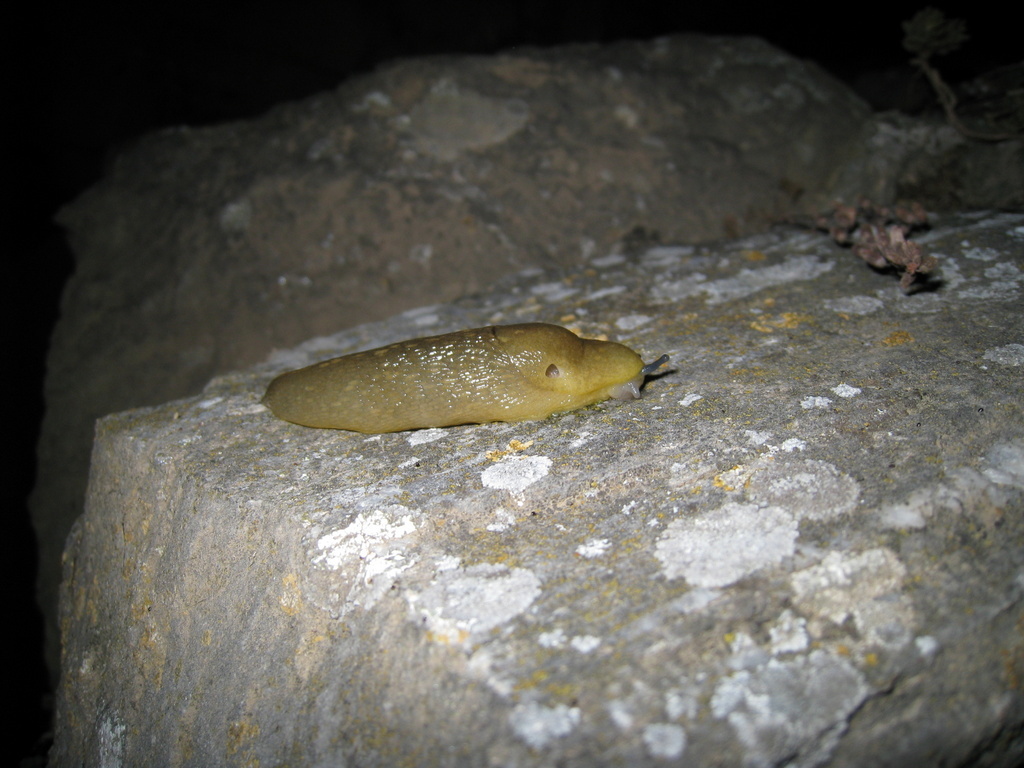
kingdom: Animalia
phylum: Mollusca
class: Gastropoda
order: Stylommatophora
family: Limacidae
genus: Limacus
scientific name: Limacus flavus
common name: Yellow gardenslug
